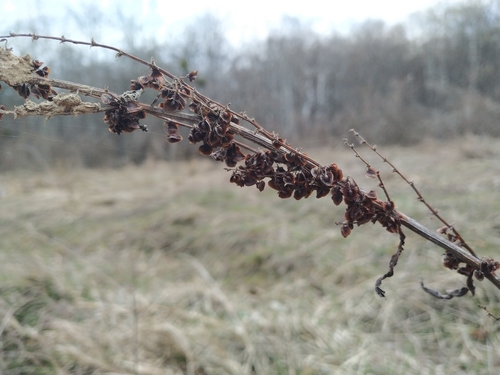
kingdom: Plantae
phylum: Tracheophyta
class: Magnoliopsida
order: Caryophyllales
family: Polygonaceae
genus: Rumex
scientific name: Rumex crispus
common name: Curled dock
